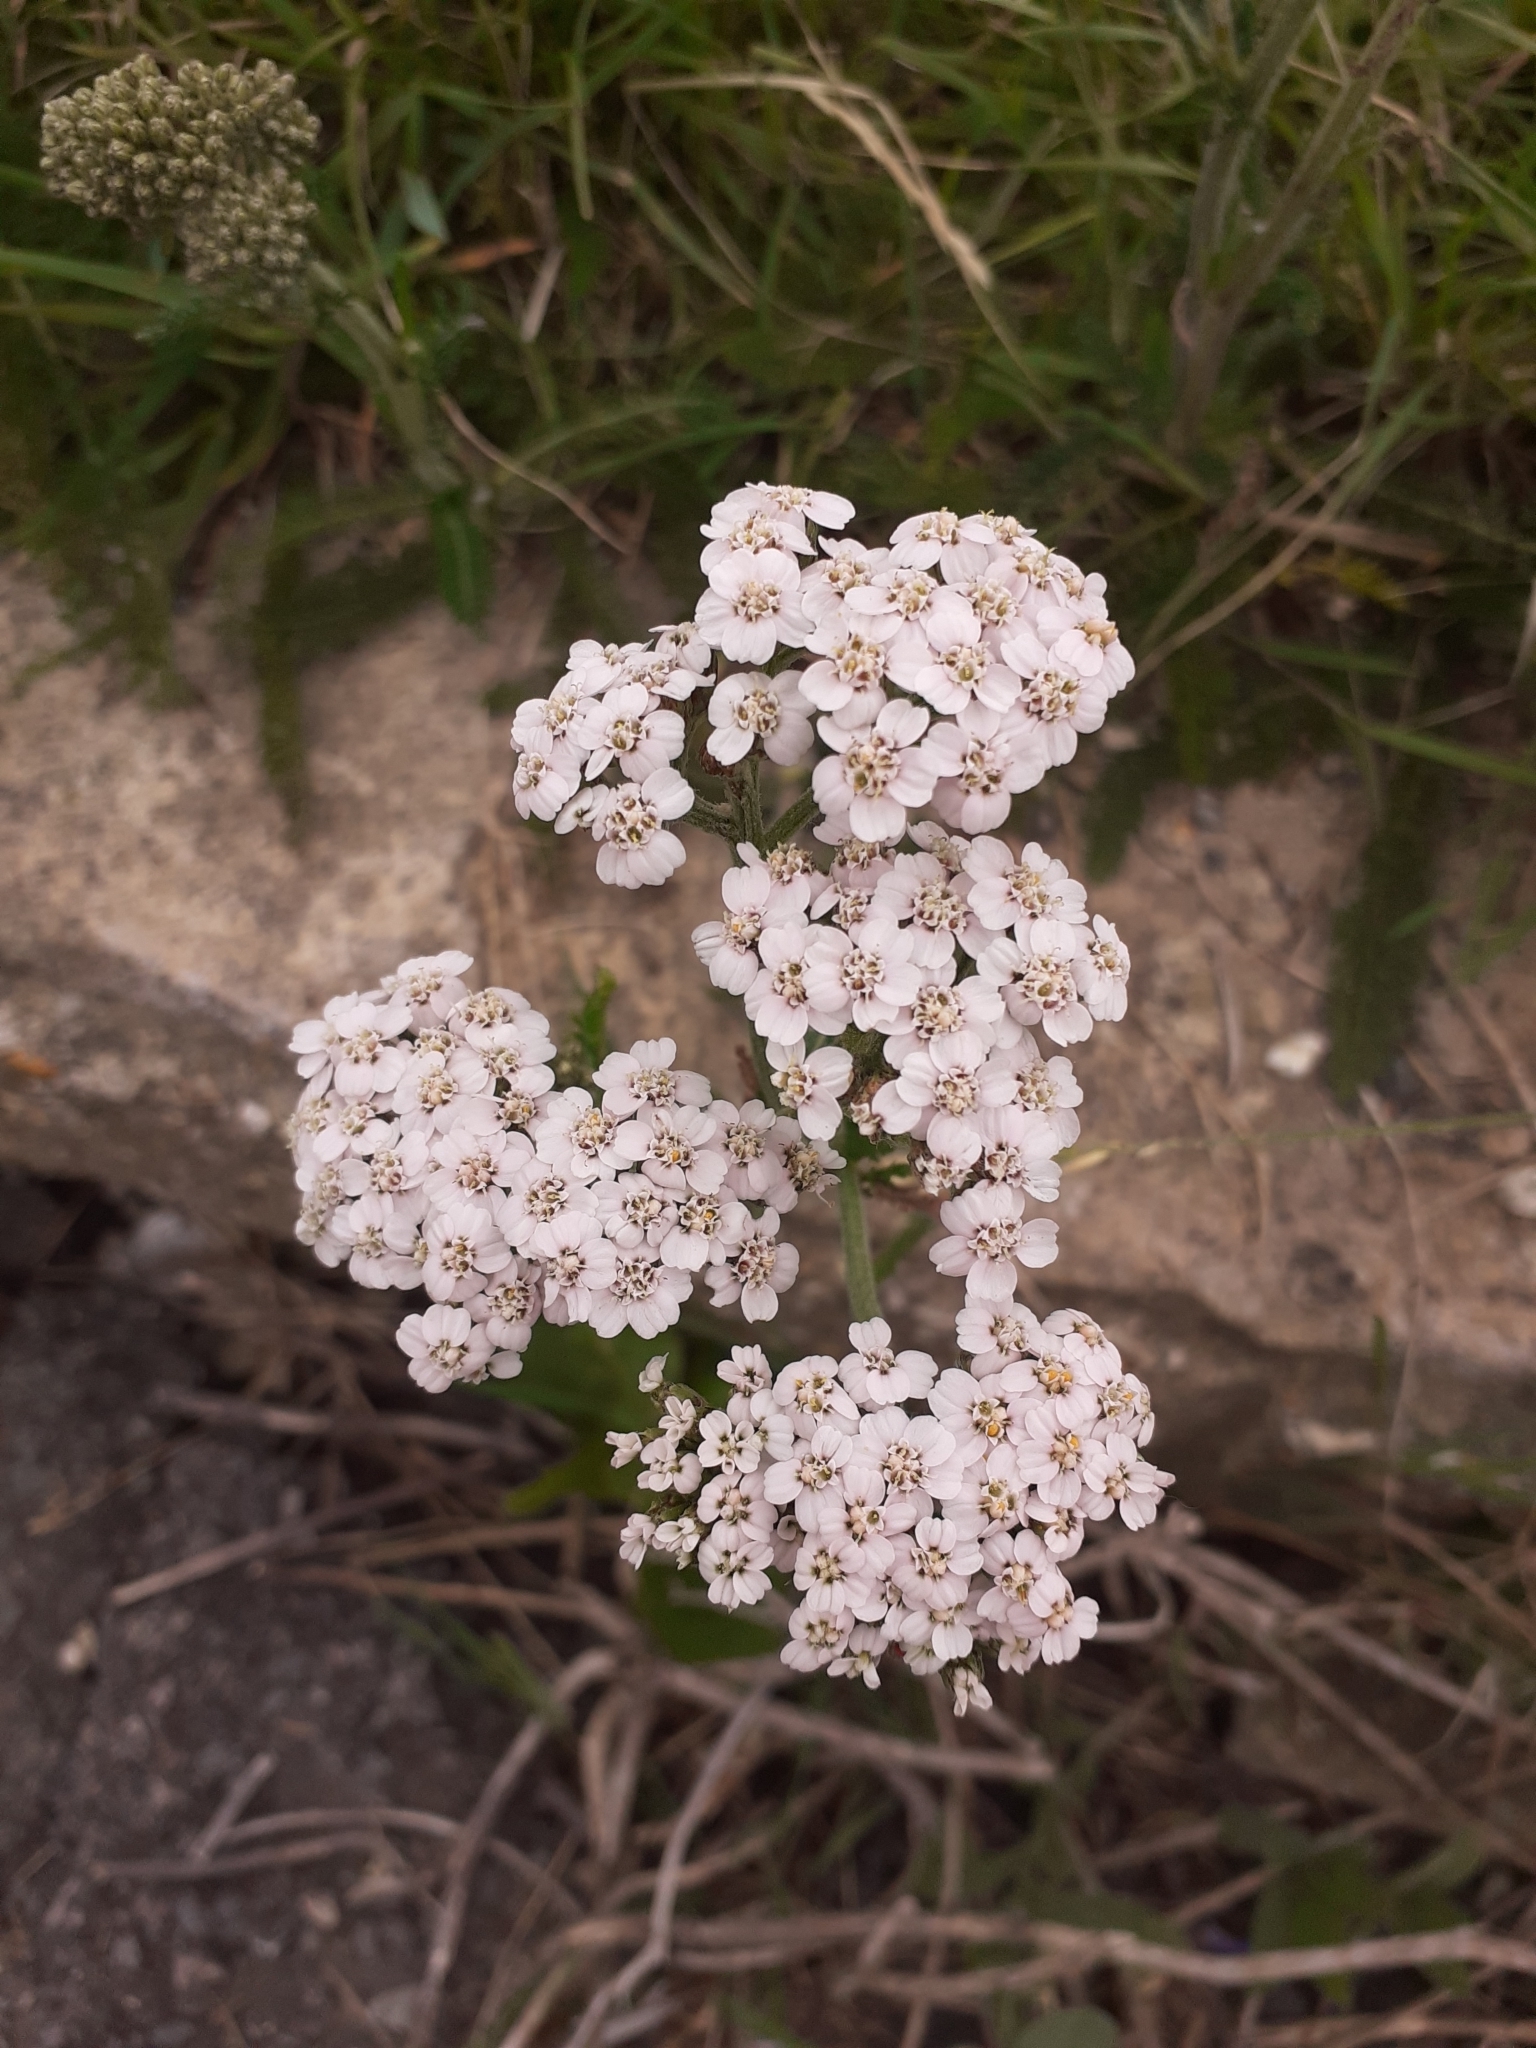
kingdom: Plantae
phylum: Tracheophyta
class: Magnoliopsida
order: Asterales
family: Asteraceae
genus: Achillea
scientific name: Achillea millefolium
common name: Yarrow
